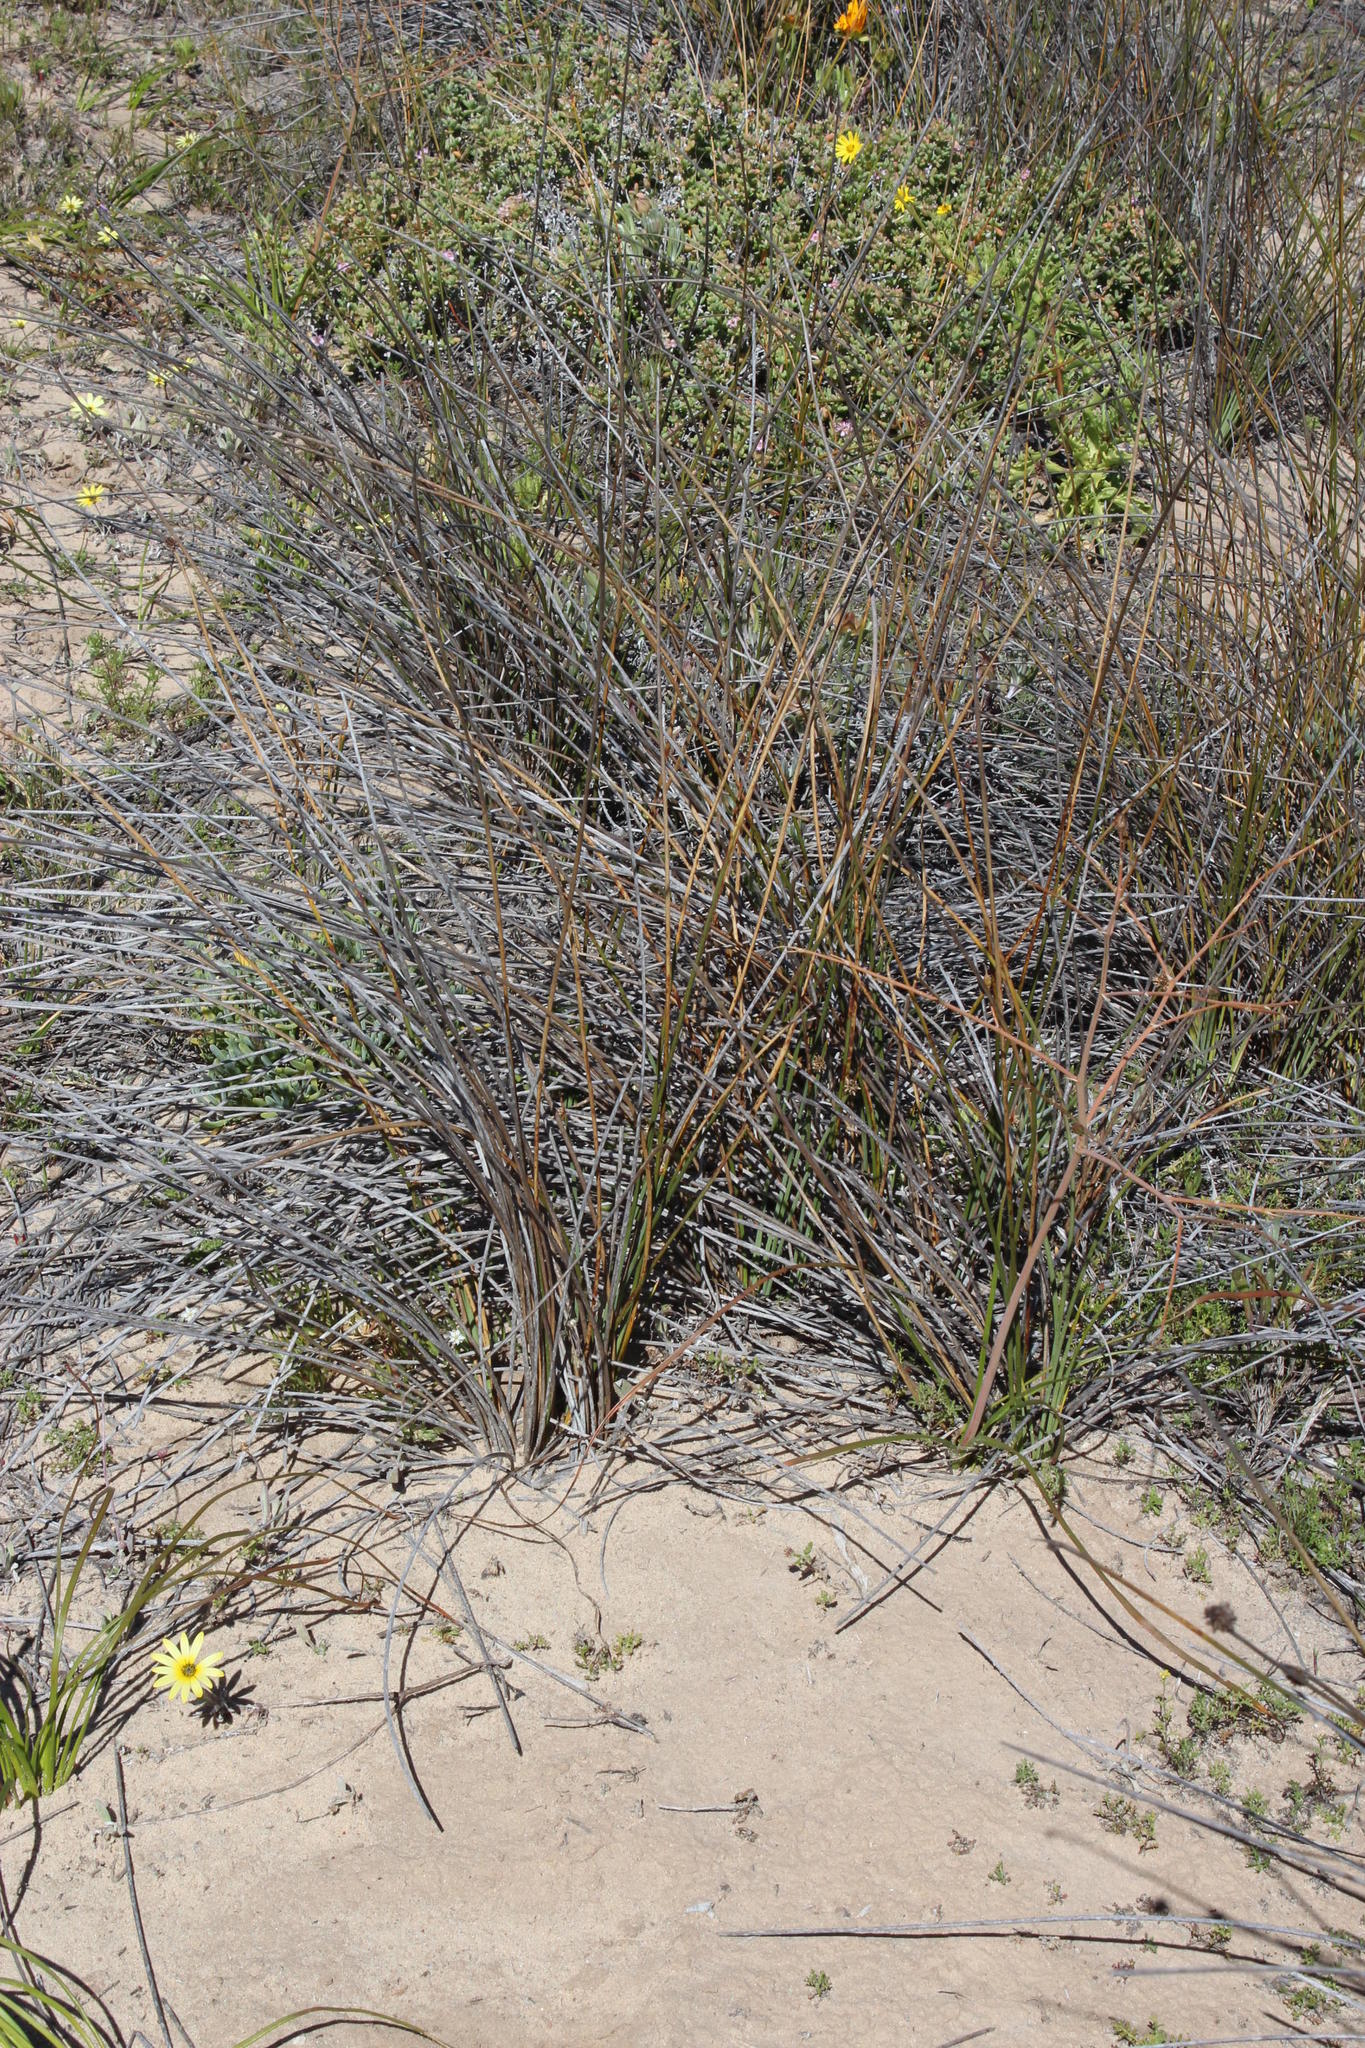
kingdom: Plantae
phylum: Tracheophyta
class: Liliopsida
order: Poales
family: Cyperaceae
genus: Afroscirpoides
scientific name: Afroscirpoides dioeca
